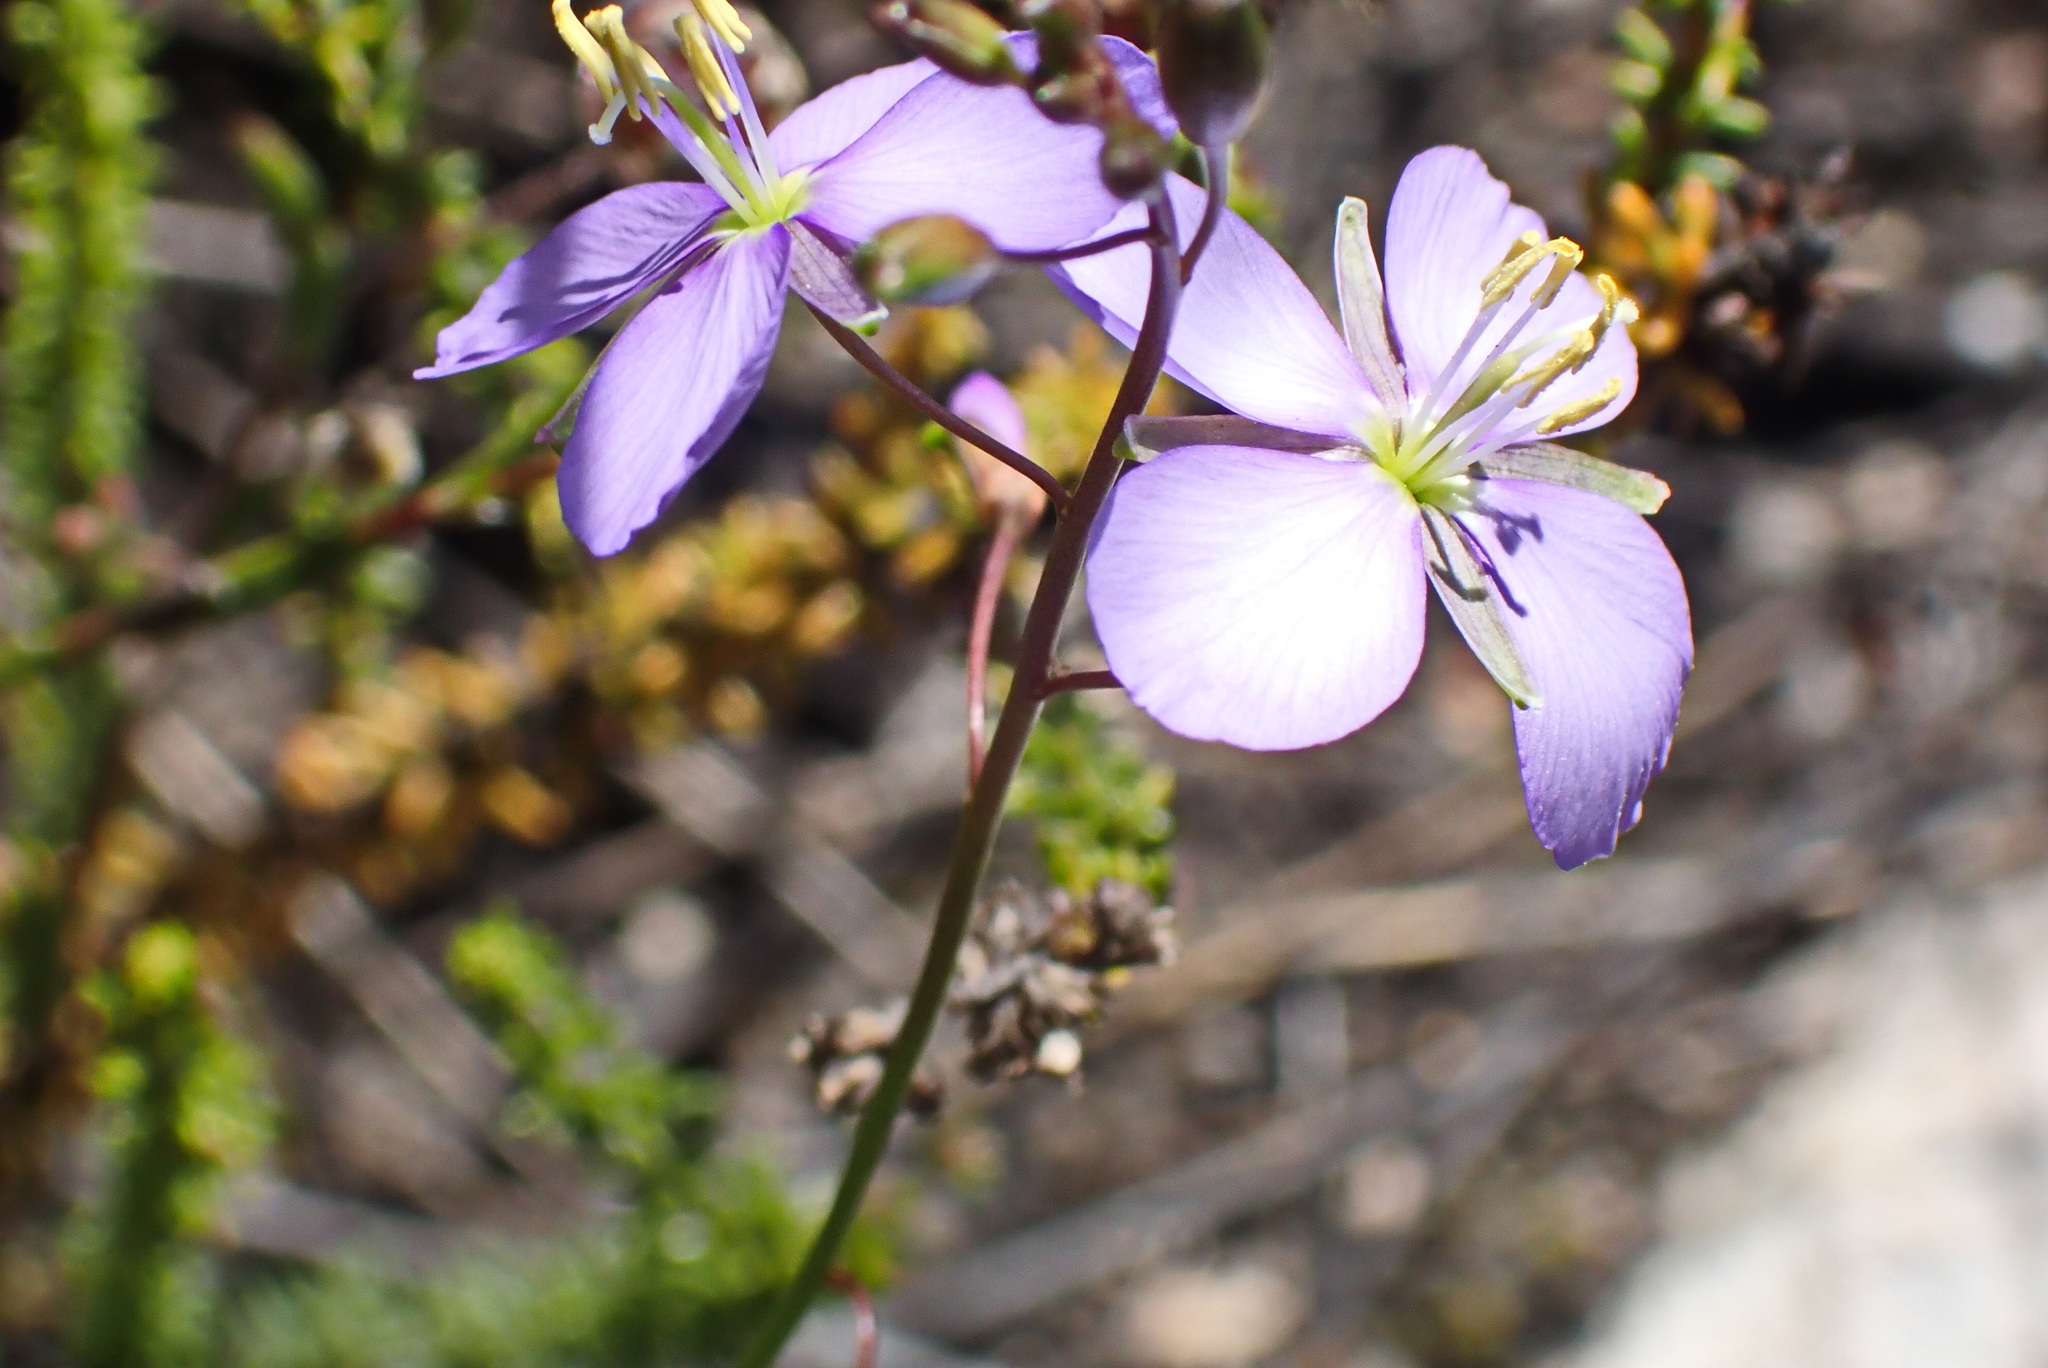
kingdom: Plantae
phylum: Tracheophyta
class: Magnoliopsida
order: Brassicales
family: Brassicaceae
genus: Heliophila
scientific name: Heliophila subulata
